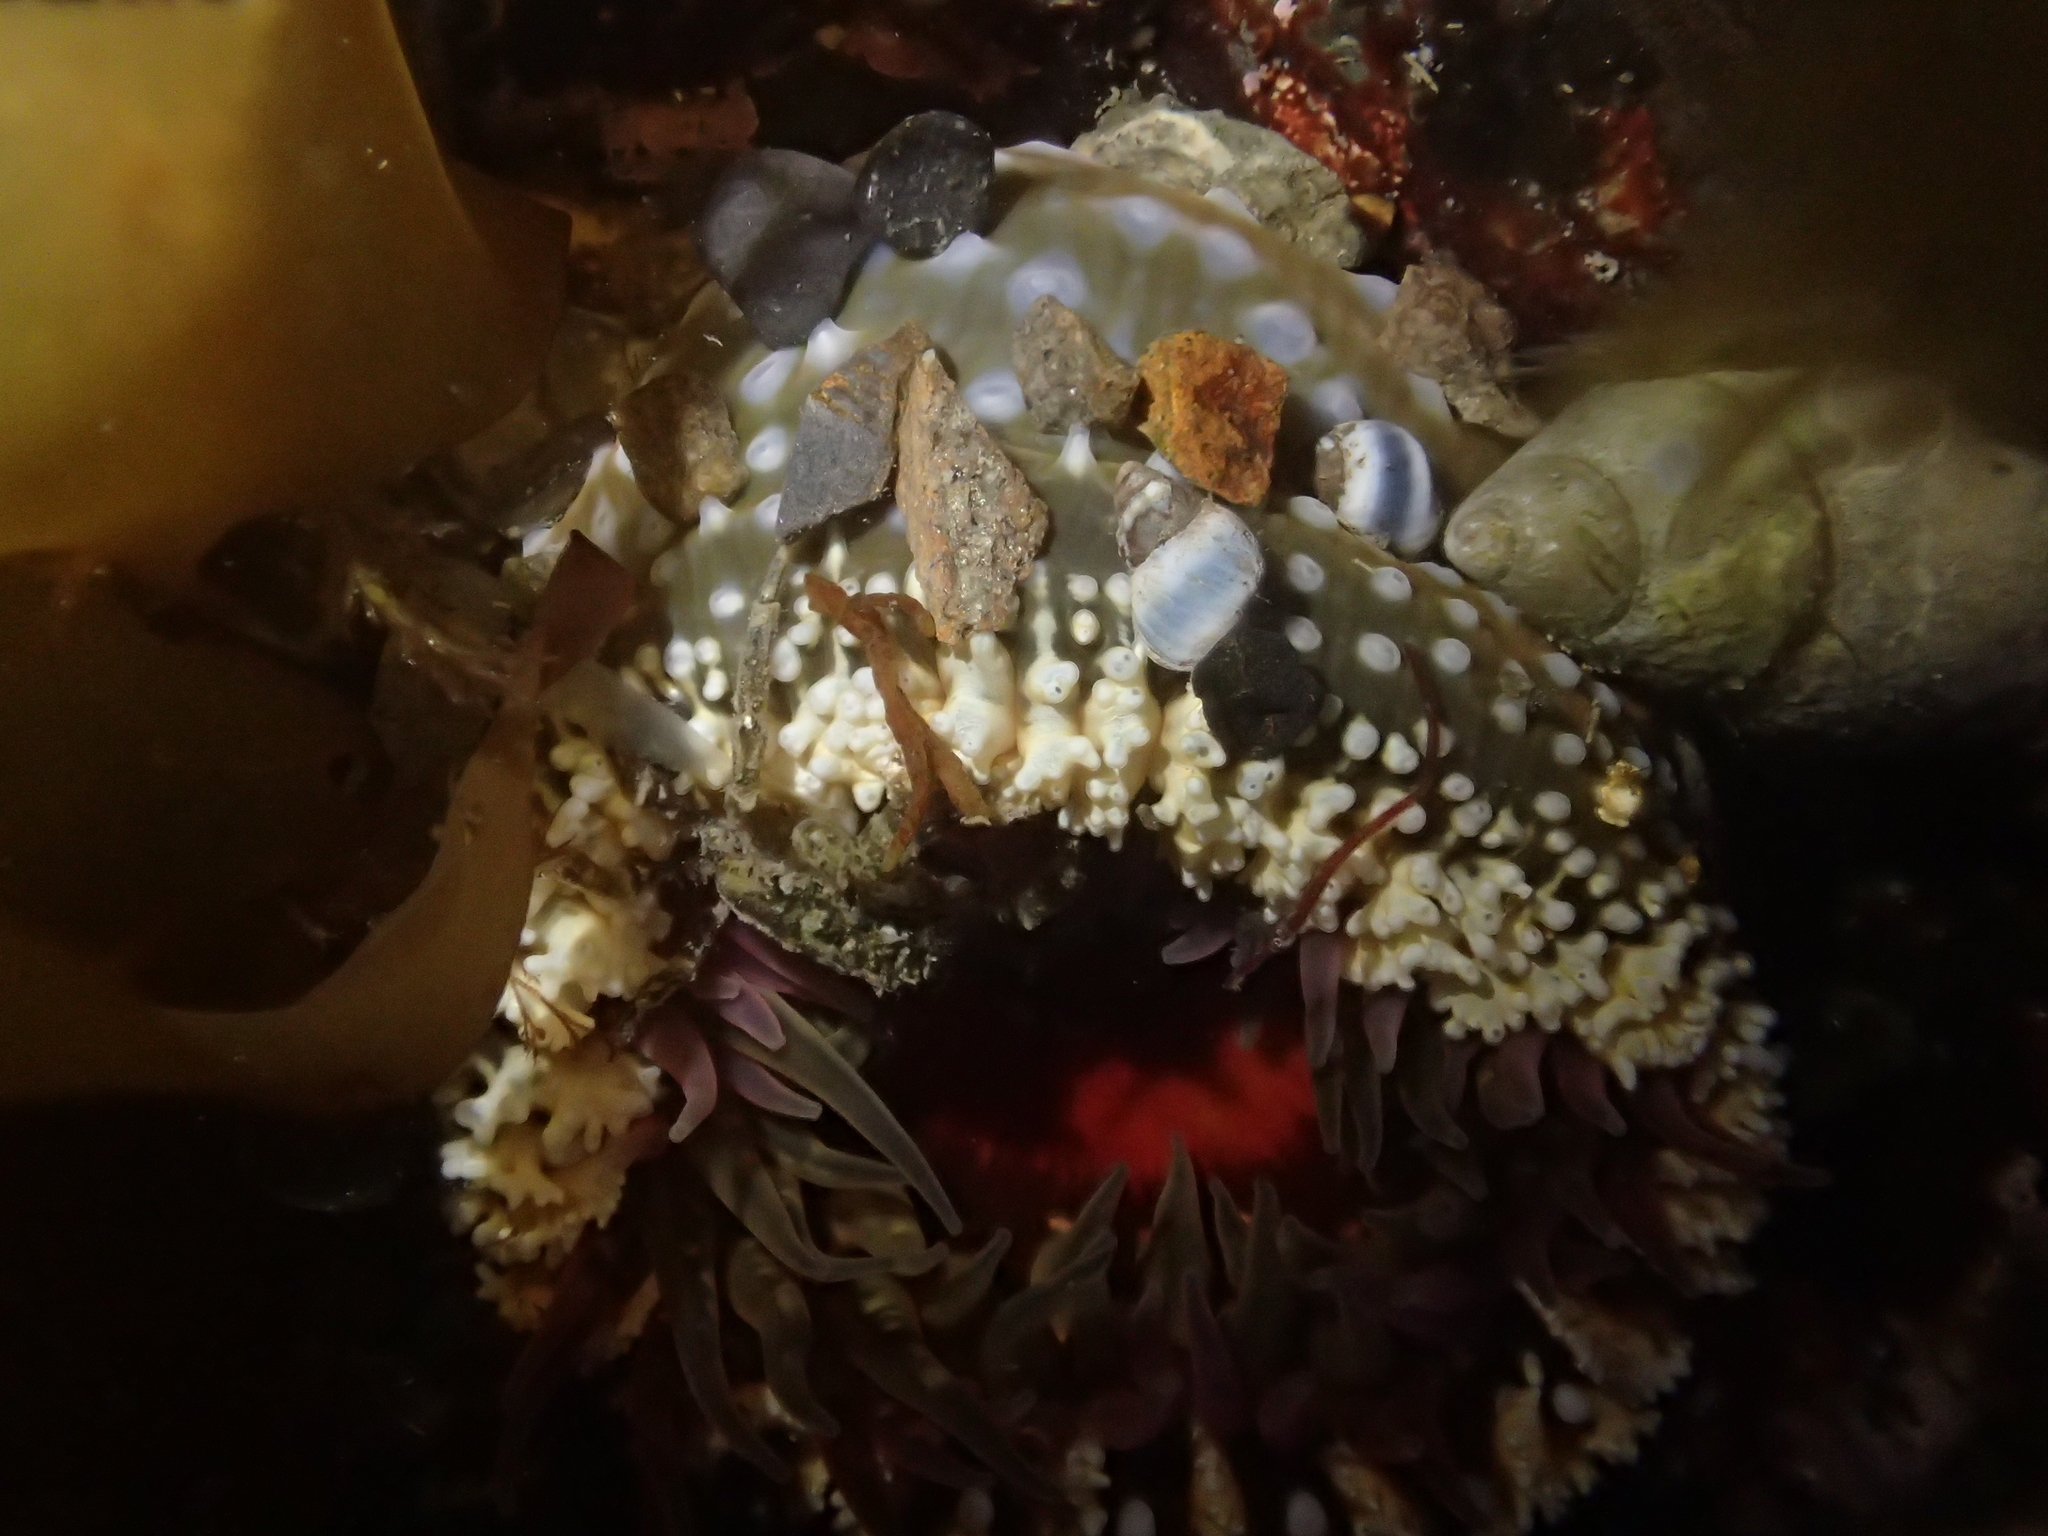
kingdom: Animalia
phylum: Cnidaria
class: Anthozoa
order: Actiniaria
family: Actiniidae
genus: Oulactis
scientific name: Oulactis muscosa
